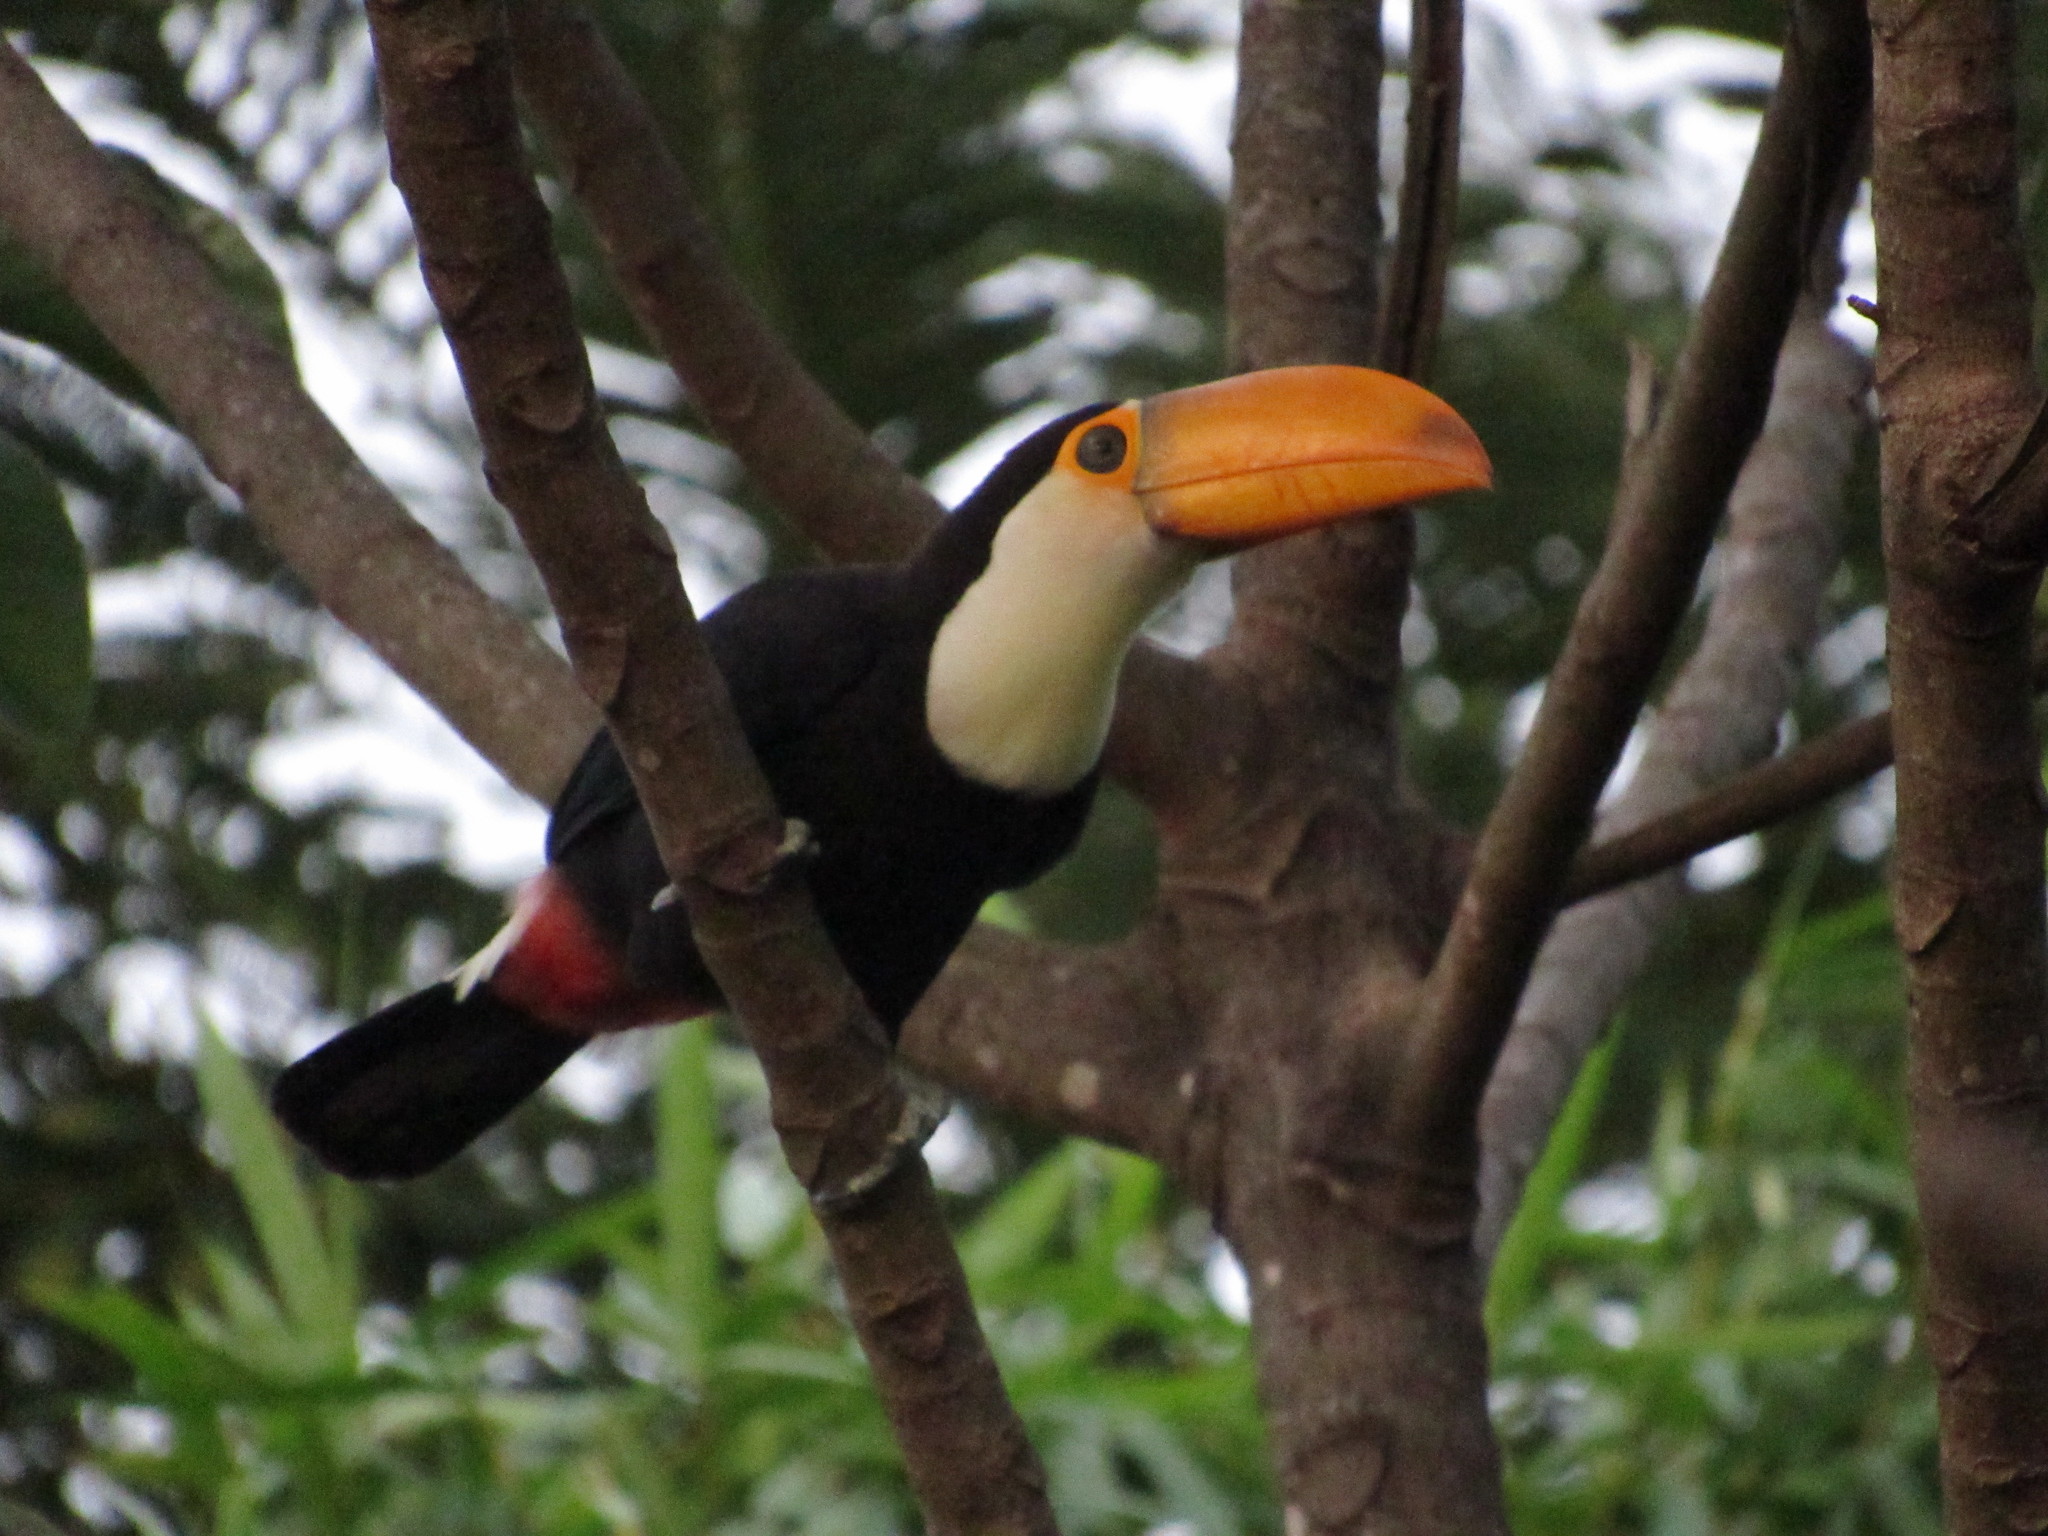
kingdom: Animalia
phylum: Chordata
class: Aves
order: Piciformes
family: Ramphastidae
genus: Ramphastos
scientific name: Ramphastos toco
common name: Toco toucan
